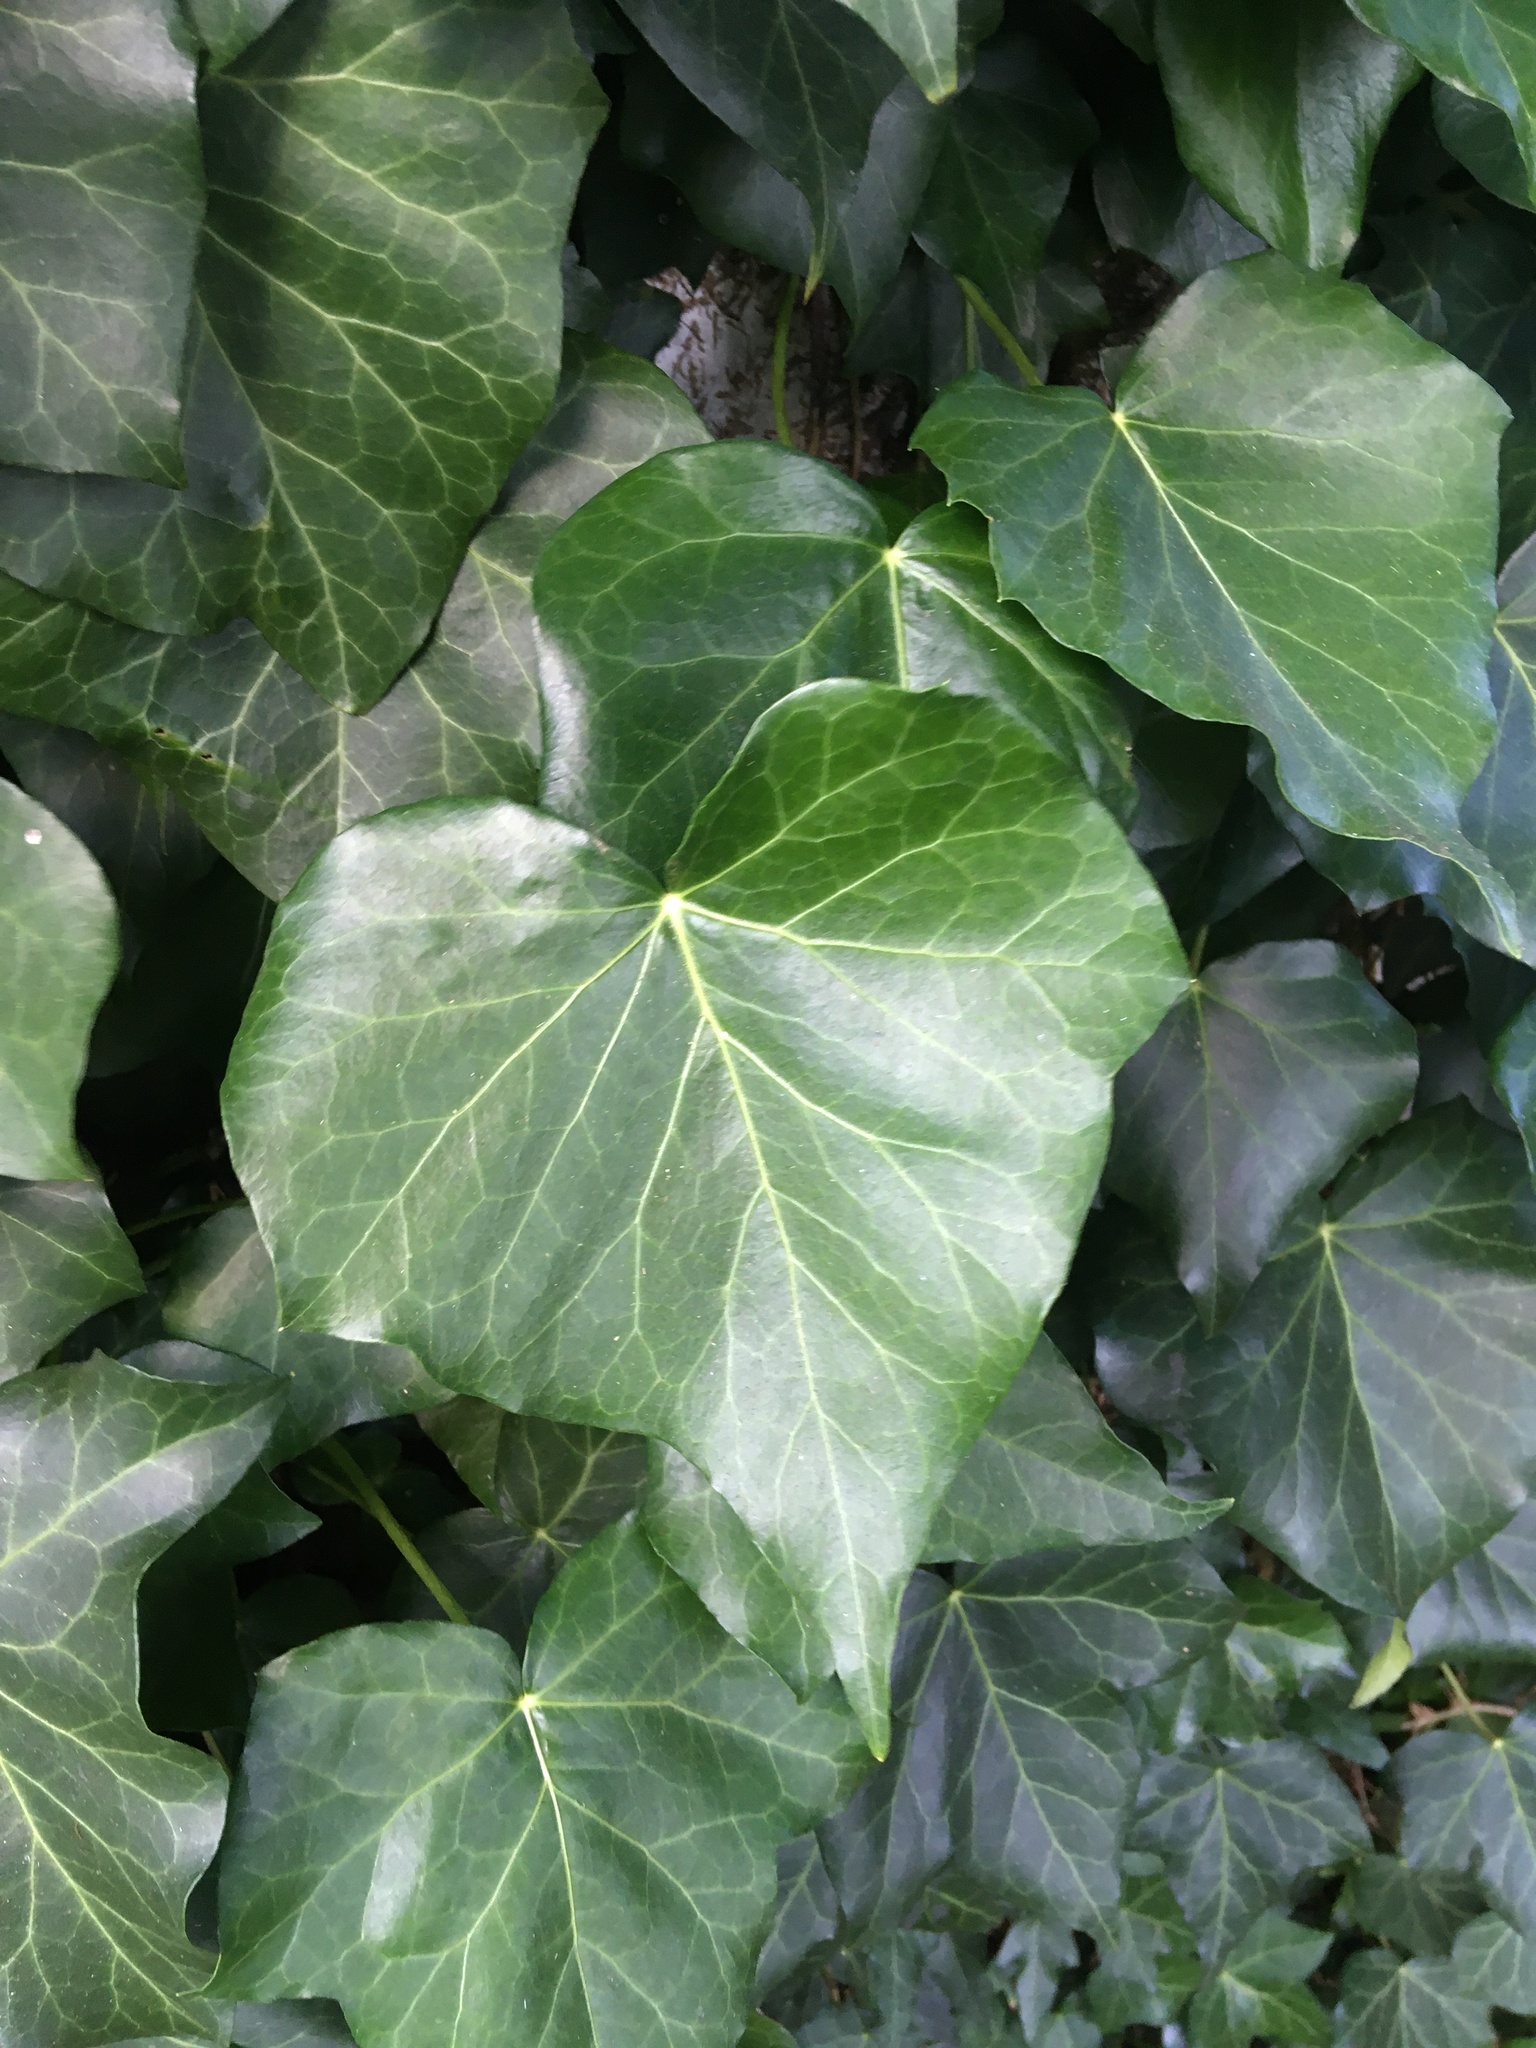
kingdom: Plantae
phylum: Tracheophyta
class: Magnoliopsida
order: Apiales
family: Araliaceae
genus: Hedera
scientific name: Hedera helix
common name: Ivy
